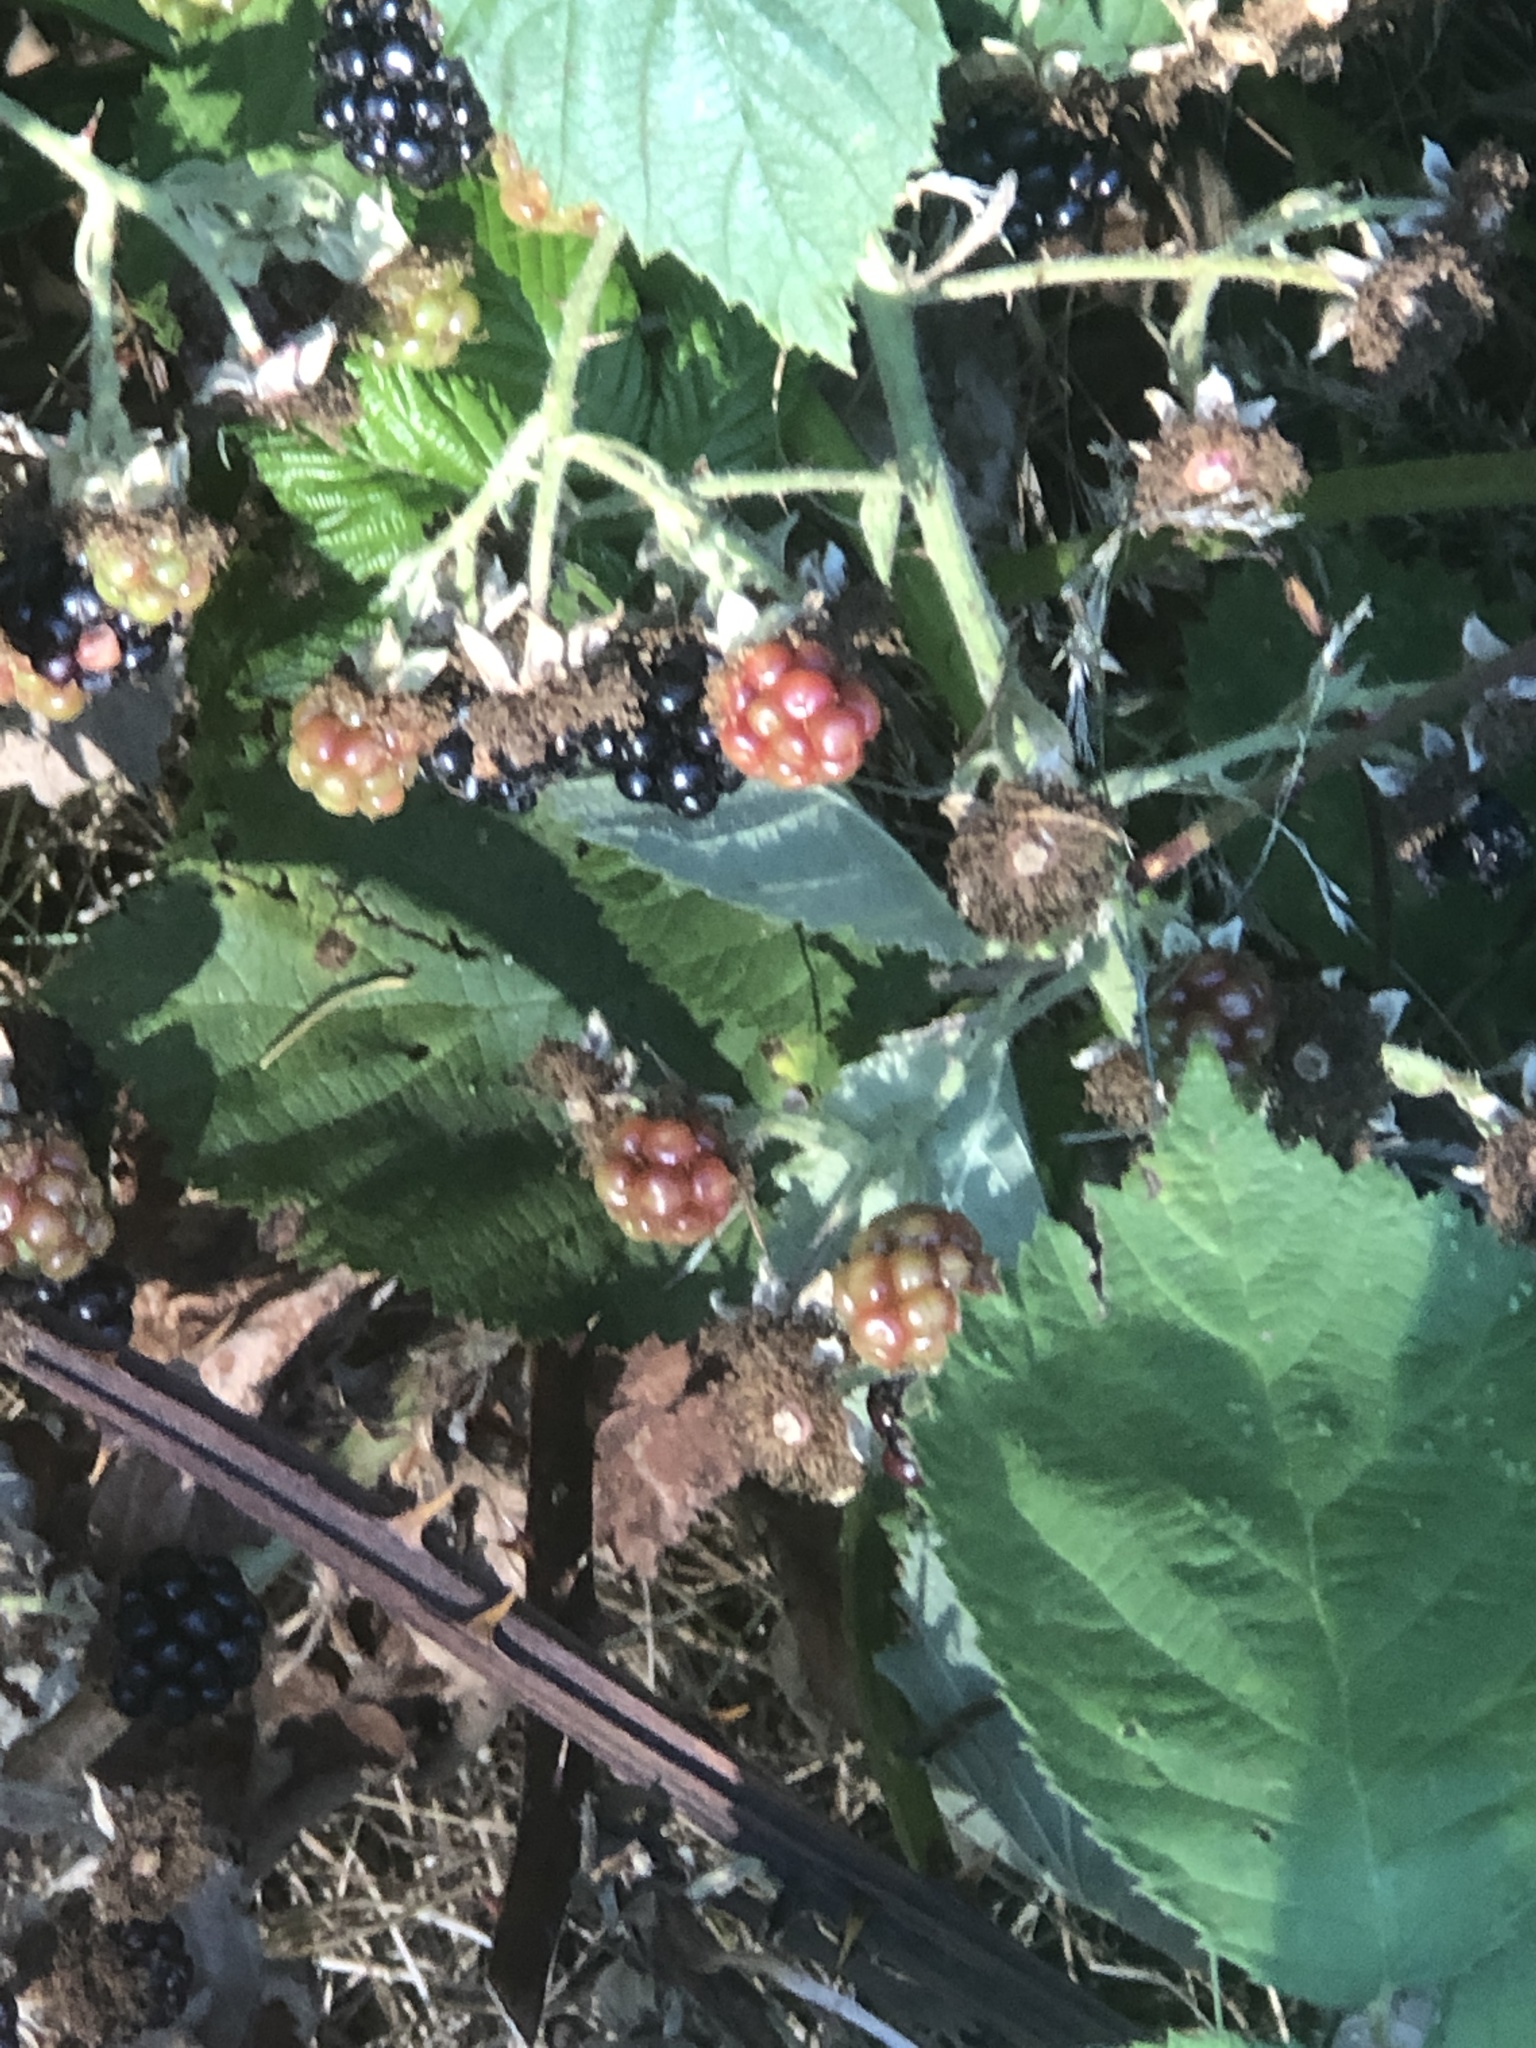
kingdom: Plantae
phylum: Tracheophyta
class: Magnoliopsida
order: Rosales
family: Rosaceae
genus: Rubus
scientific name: Rubus bifrons
